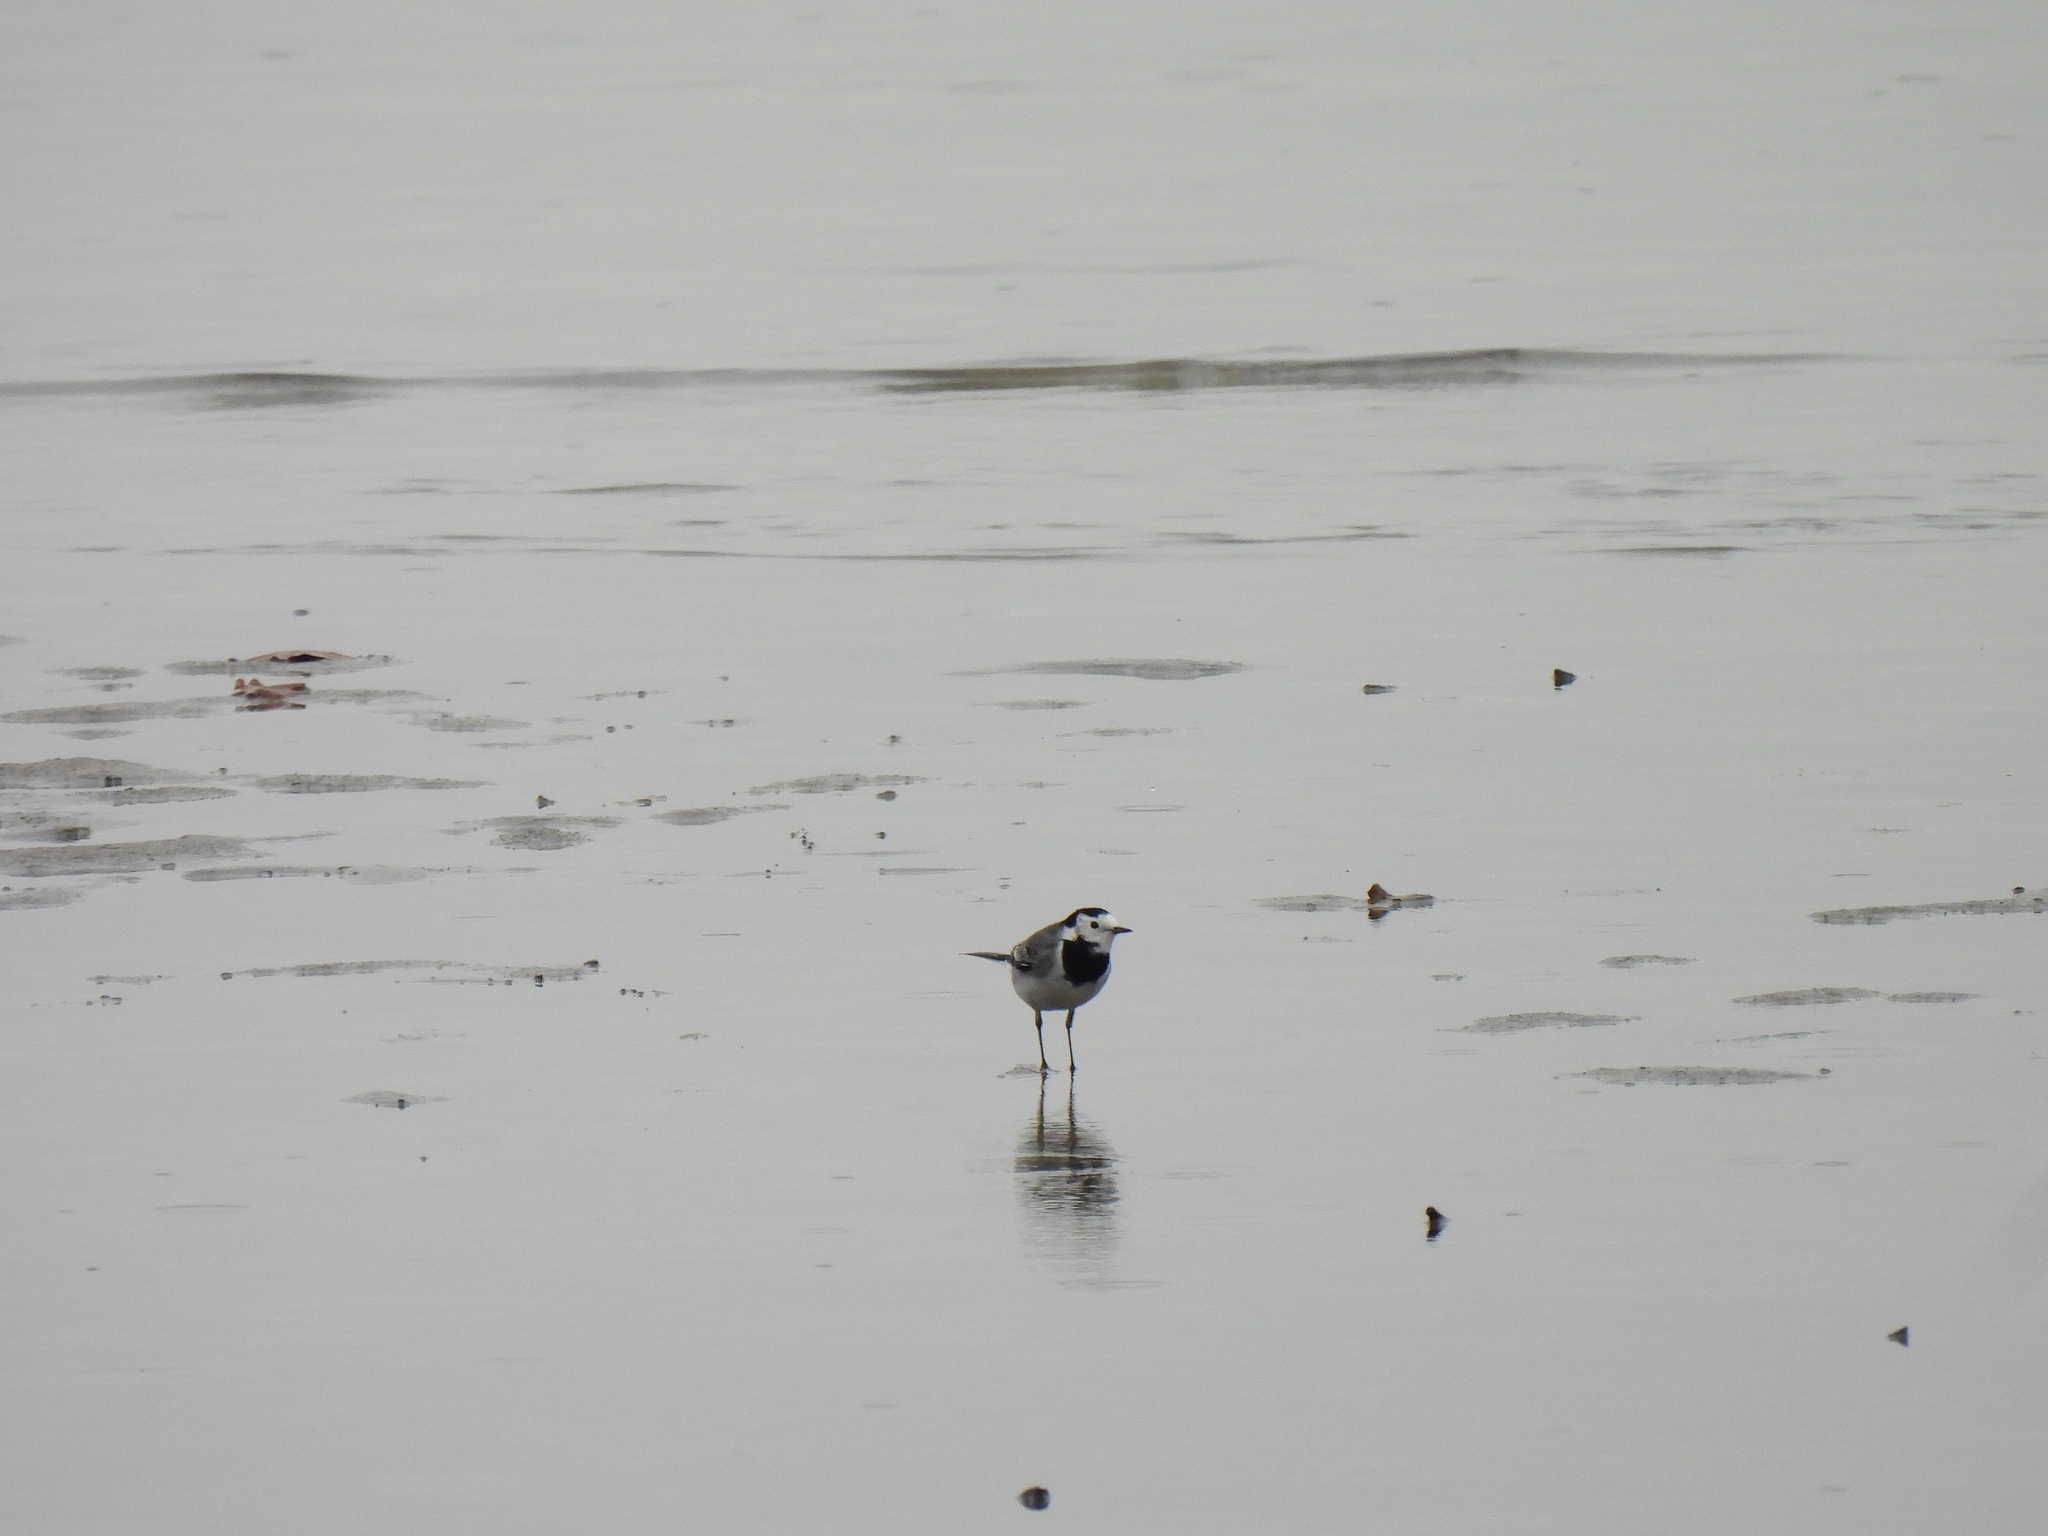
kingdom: Animalia
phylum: Chordata
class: Aves
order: Passeriformes
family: Motacillidae
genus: Motacilla
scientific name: Motacilla alba
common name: White wagtail
